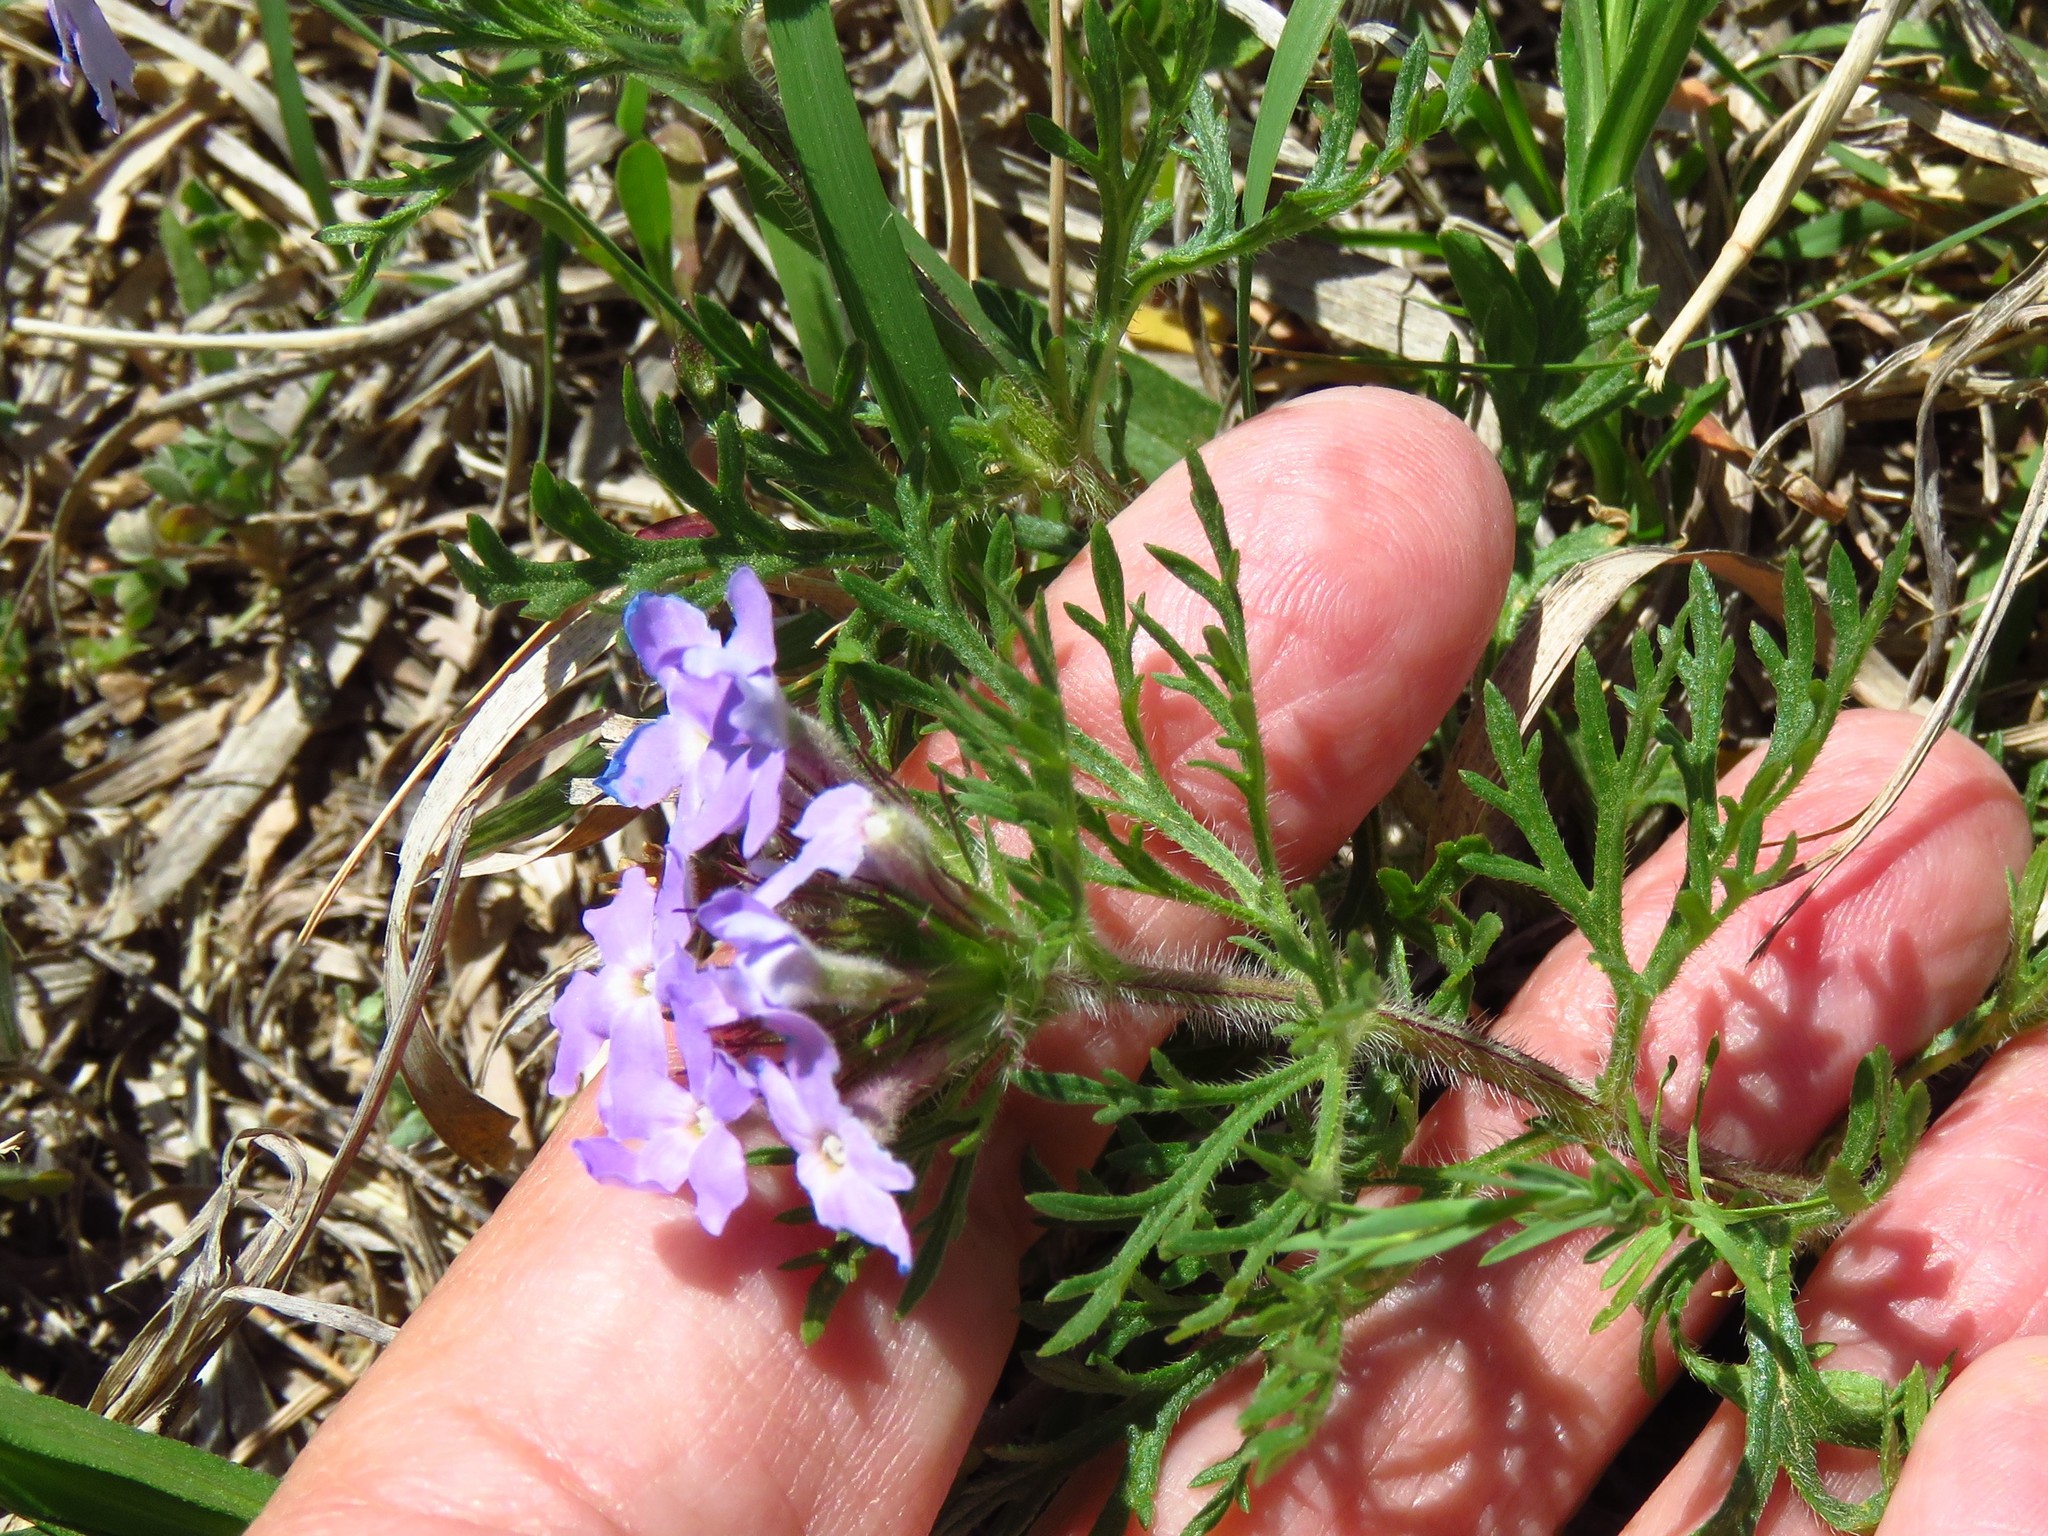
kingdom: Plantae
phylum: Tracheophyta
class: Magnoliopsida
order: Lamiales
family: Verbenaceae
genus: Verbena
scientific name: Verbena bipinnatifida
